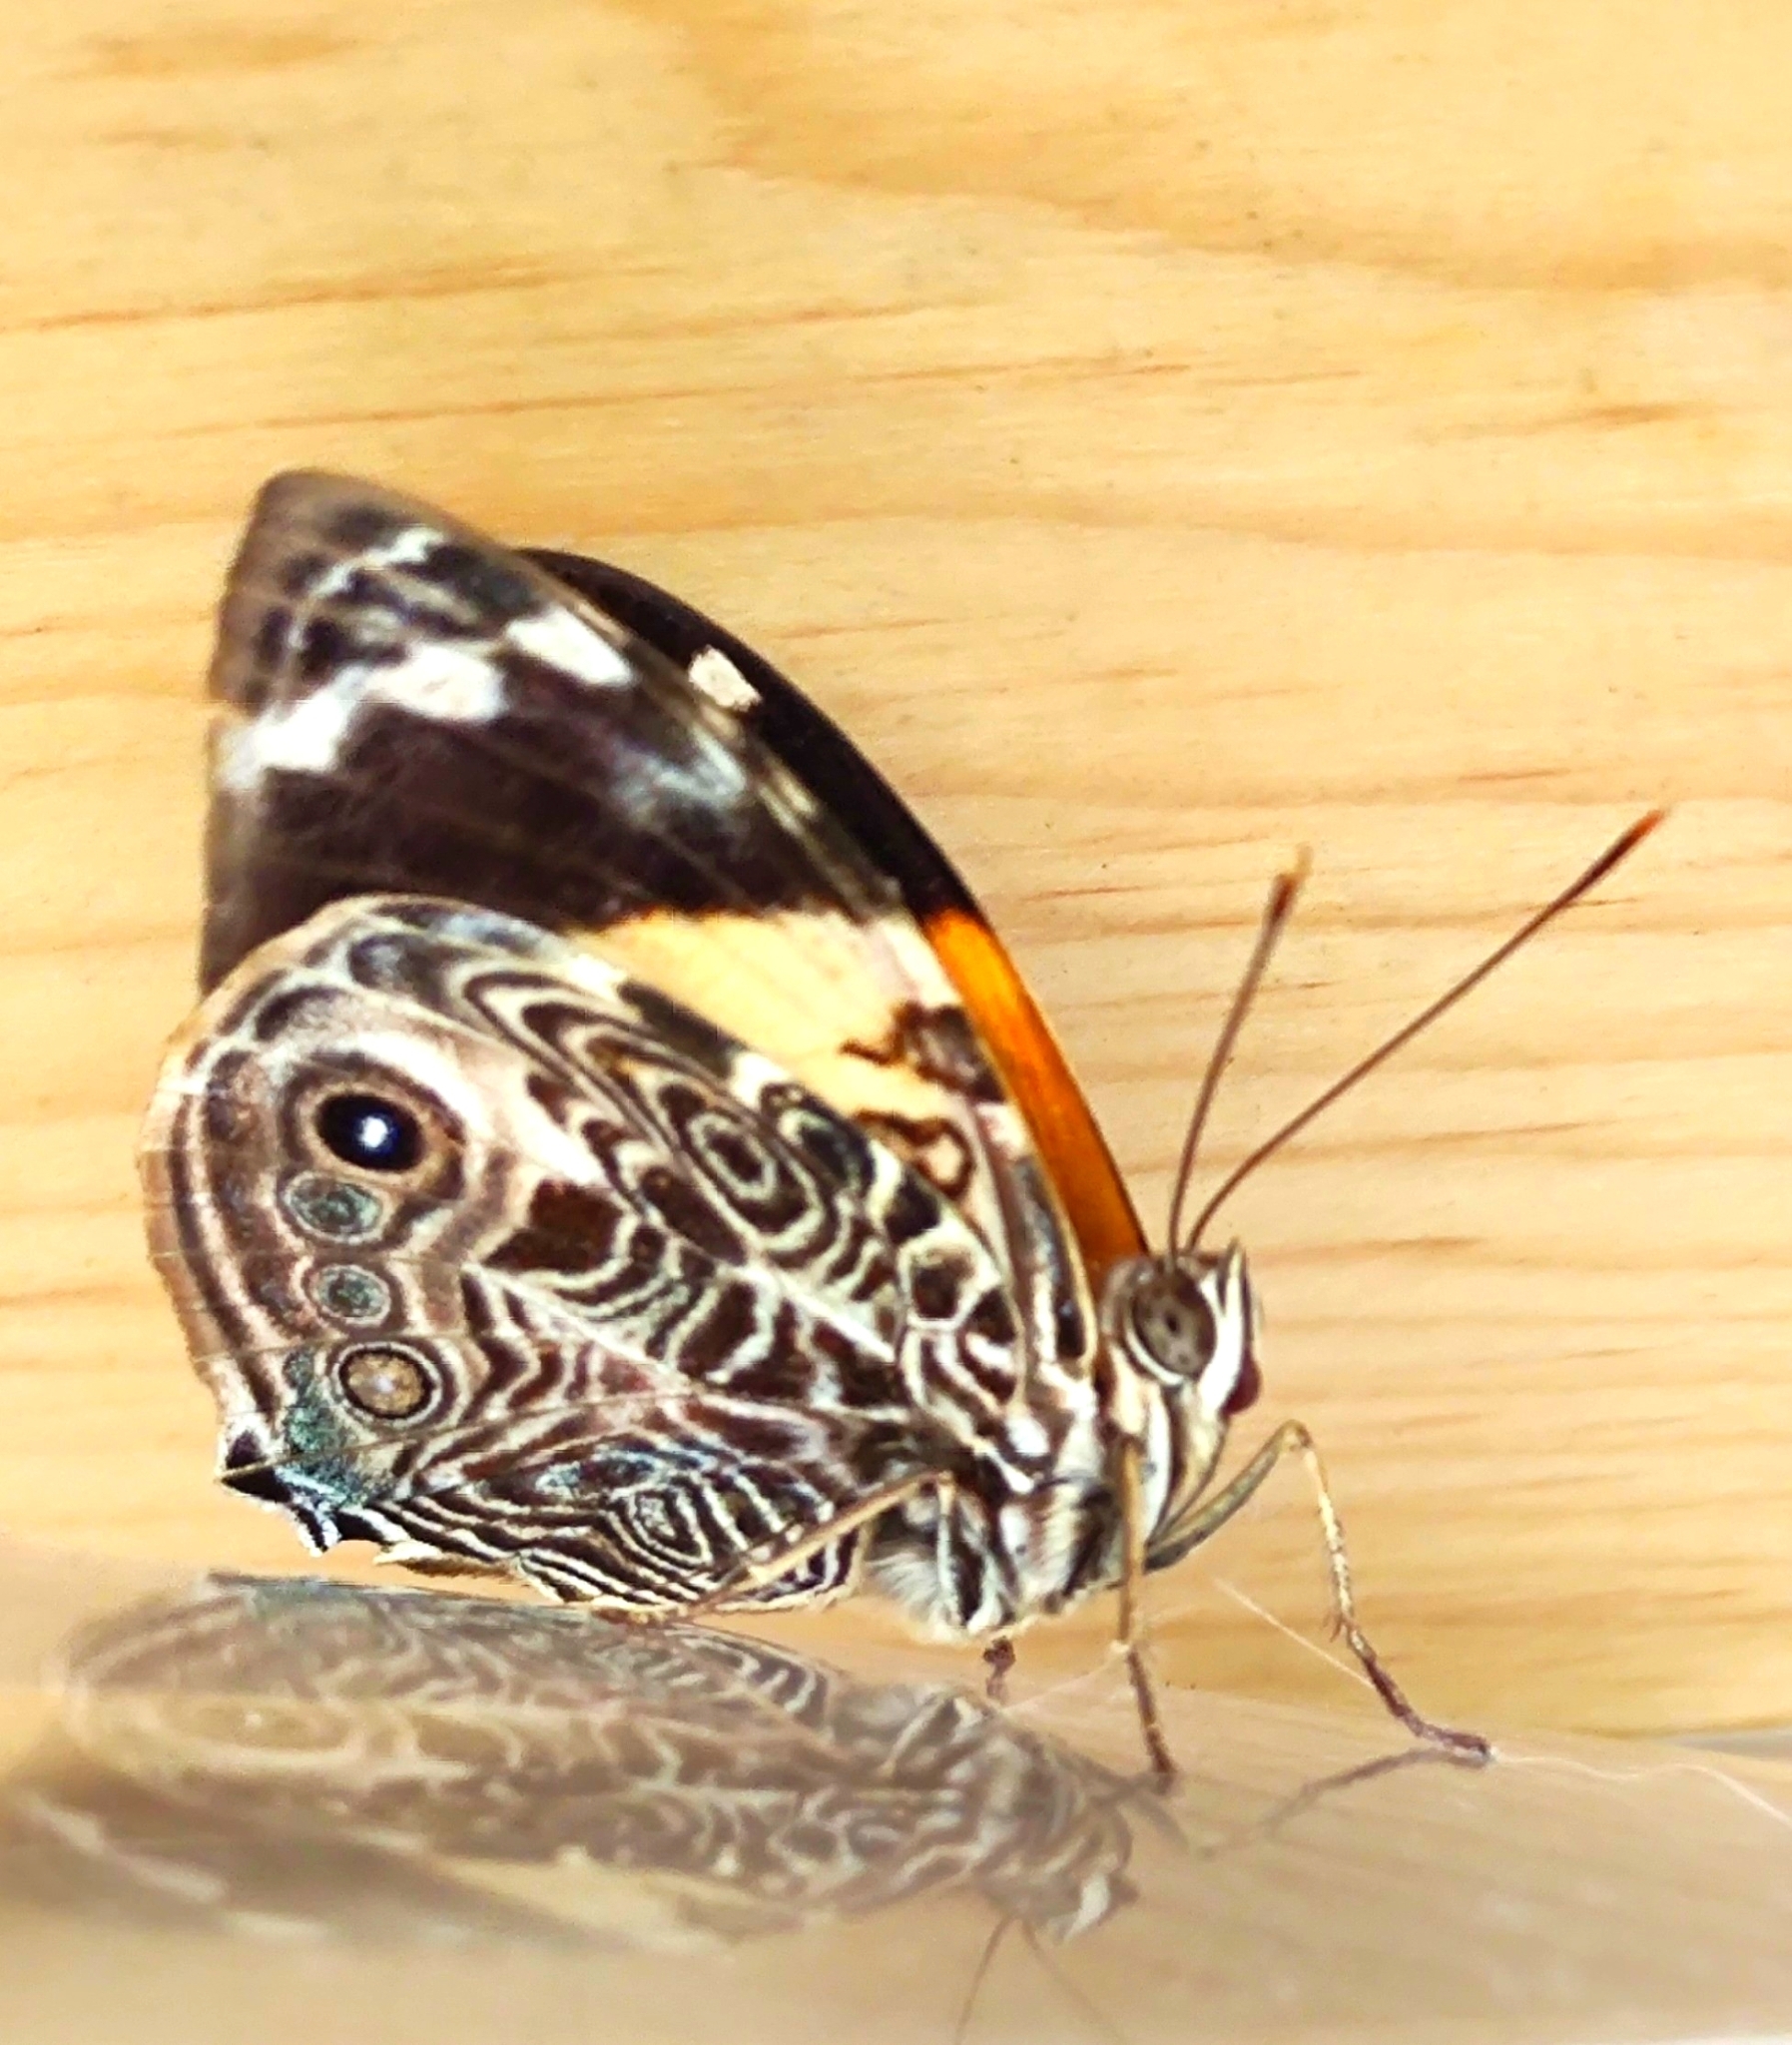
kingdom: Animalia
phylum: Arthropoda
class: Insecta
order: Lepidoptera
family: Nymphalidae
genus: Smyrna
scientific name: Smyrna blomfildia
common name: Blomfild's beauty
